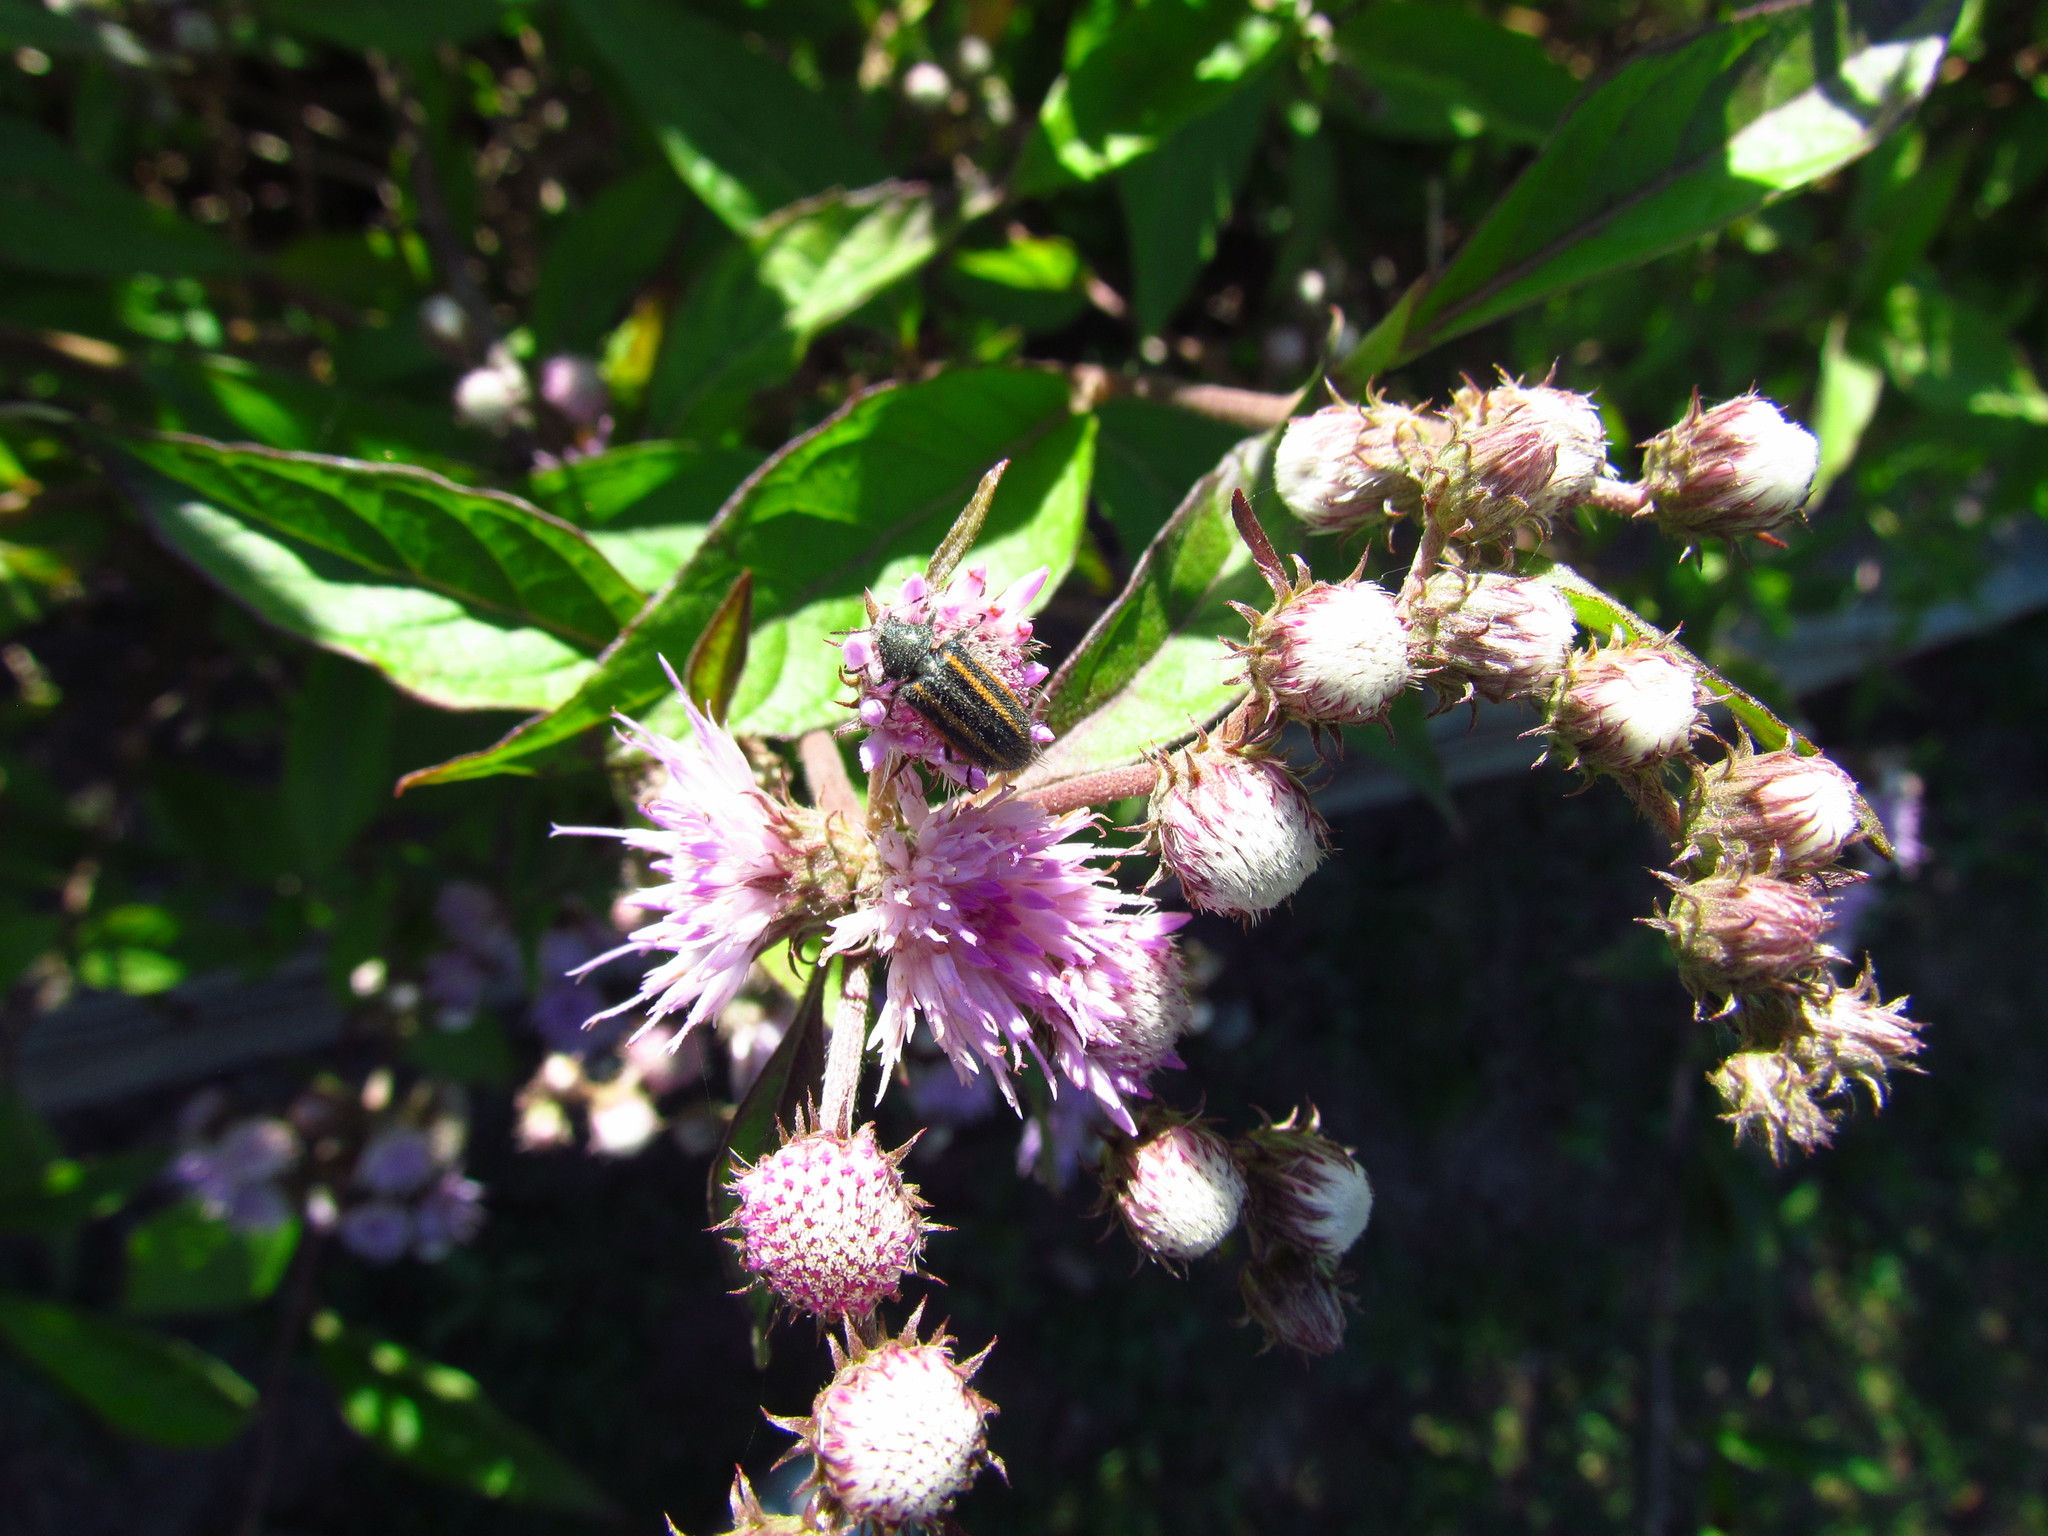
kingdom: Animalia
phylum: Arthropoda
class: Insecta
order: Coleoptera
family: Melyridae
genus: Astylus
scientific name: Astylus
